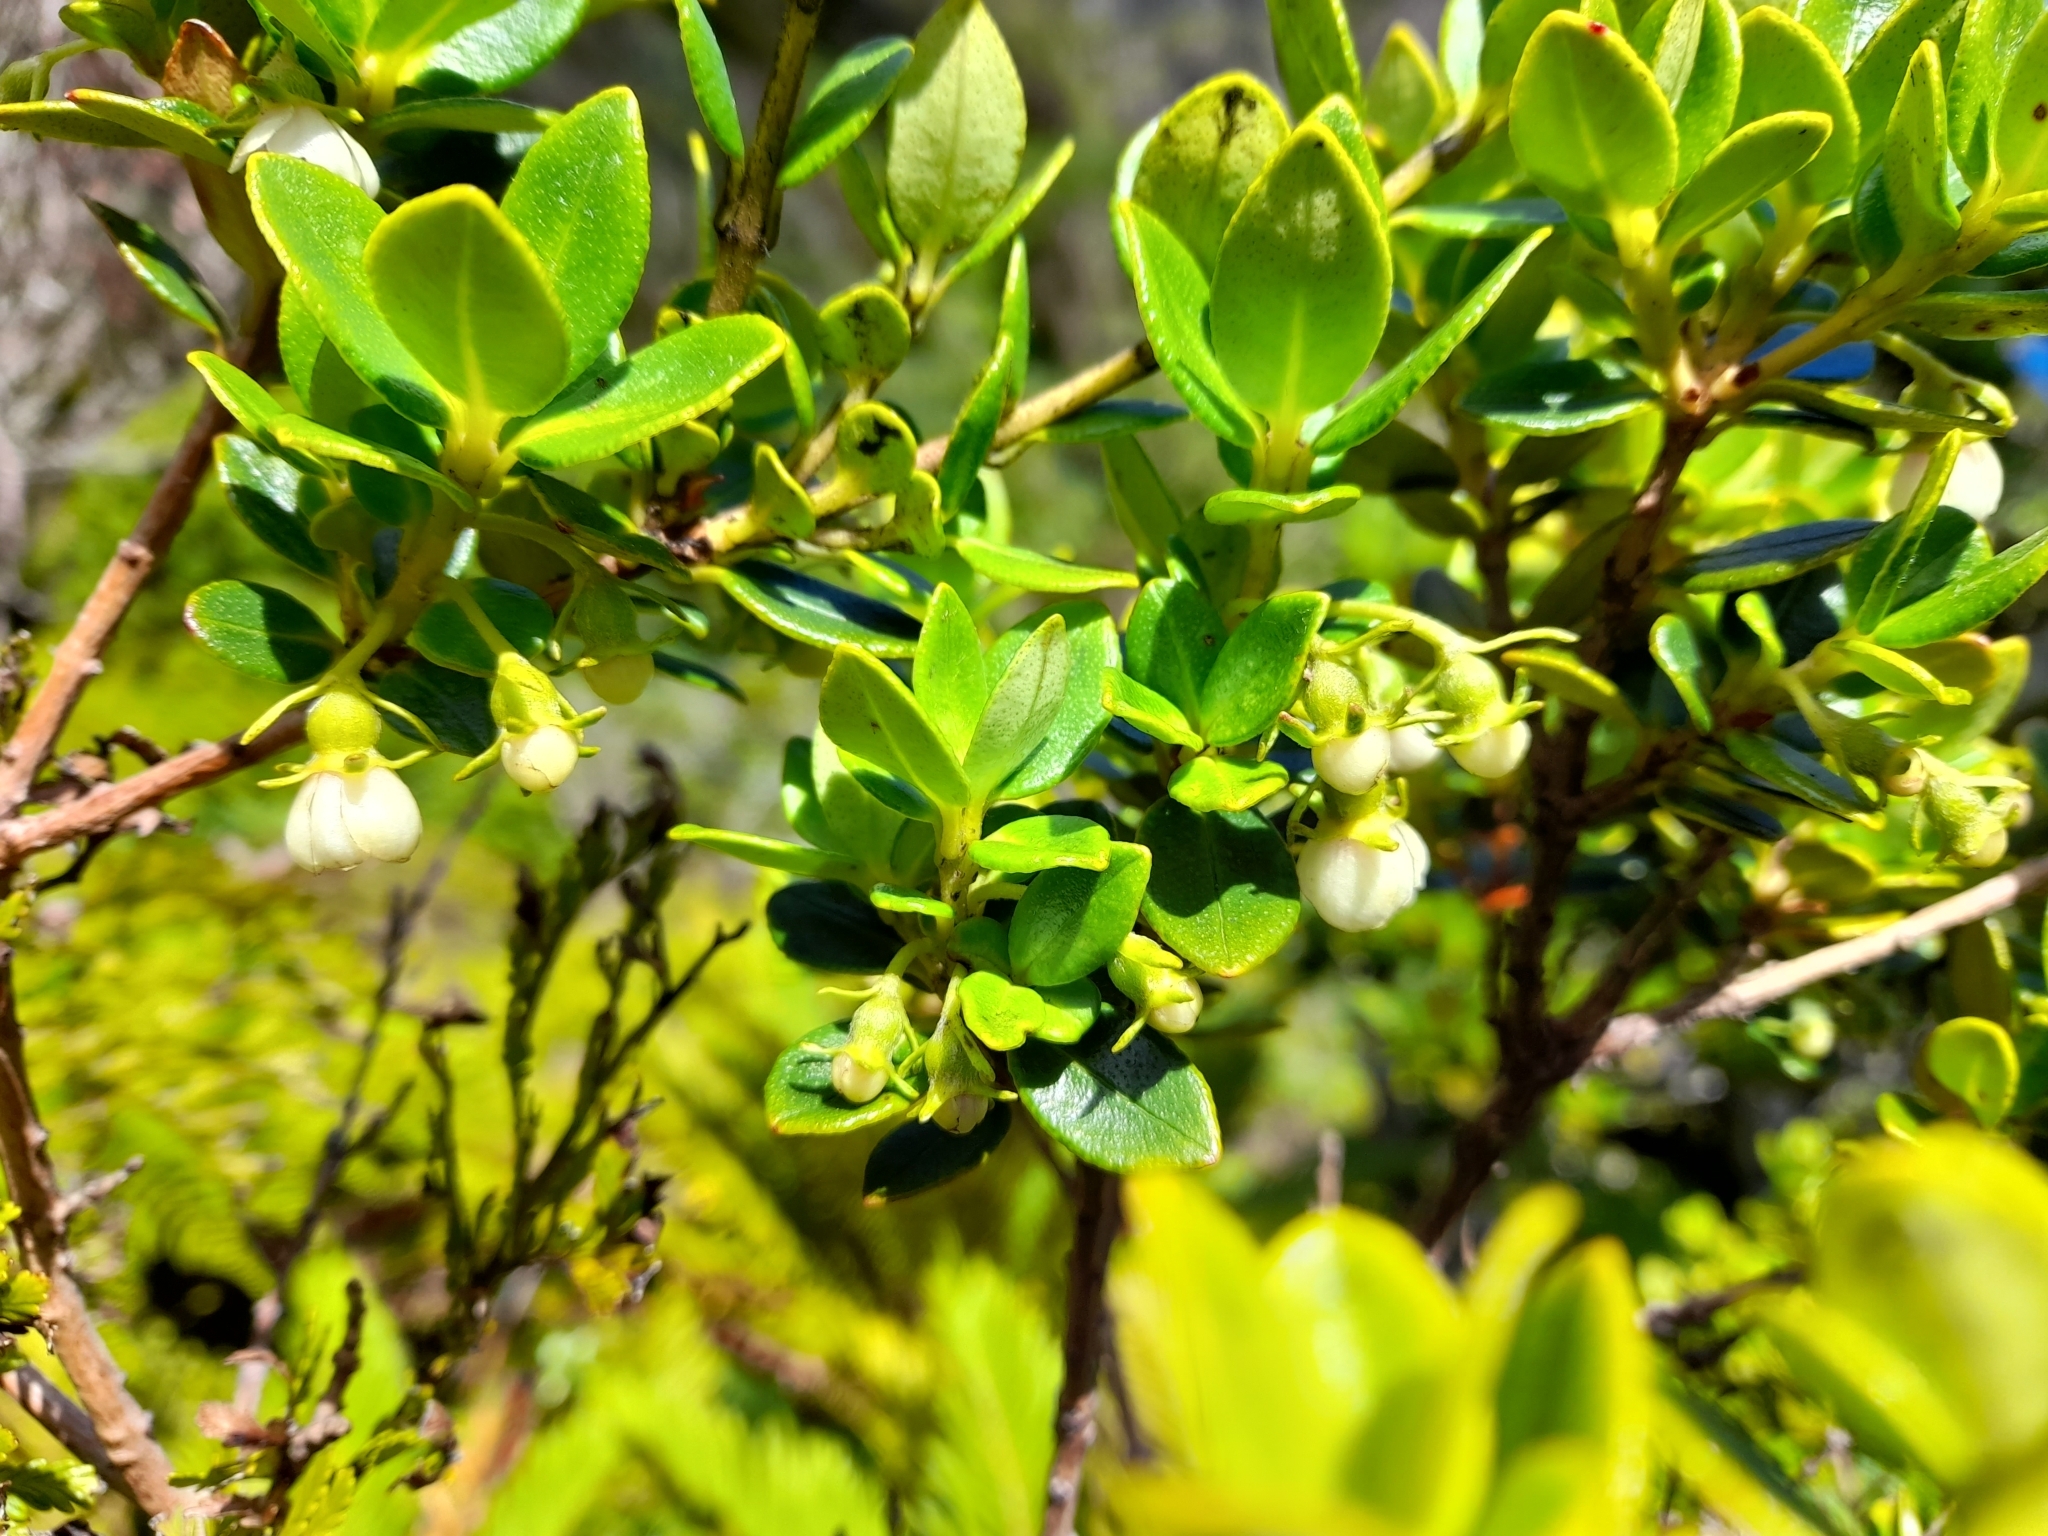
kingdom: Plantae
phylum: Tracheophyta
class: Magnoliopsida
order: Myrtales
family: Myrtaceae
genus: Ugni
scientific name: Ugni selkirkii
